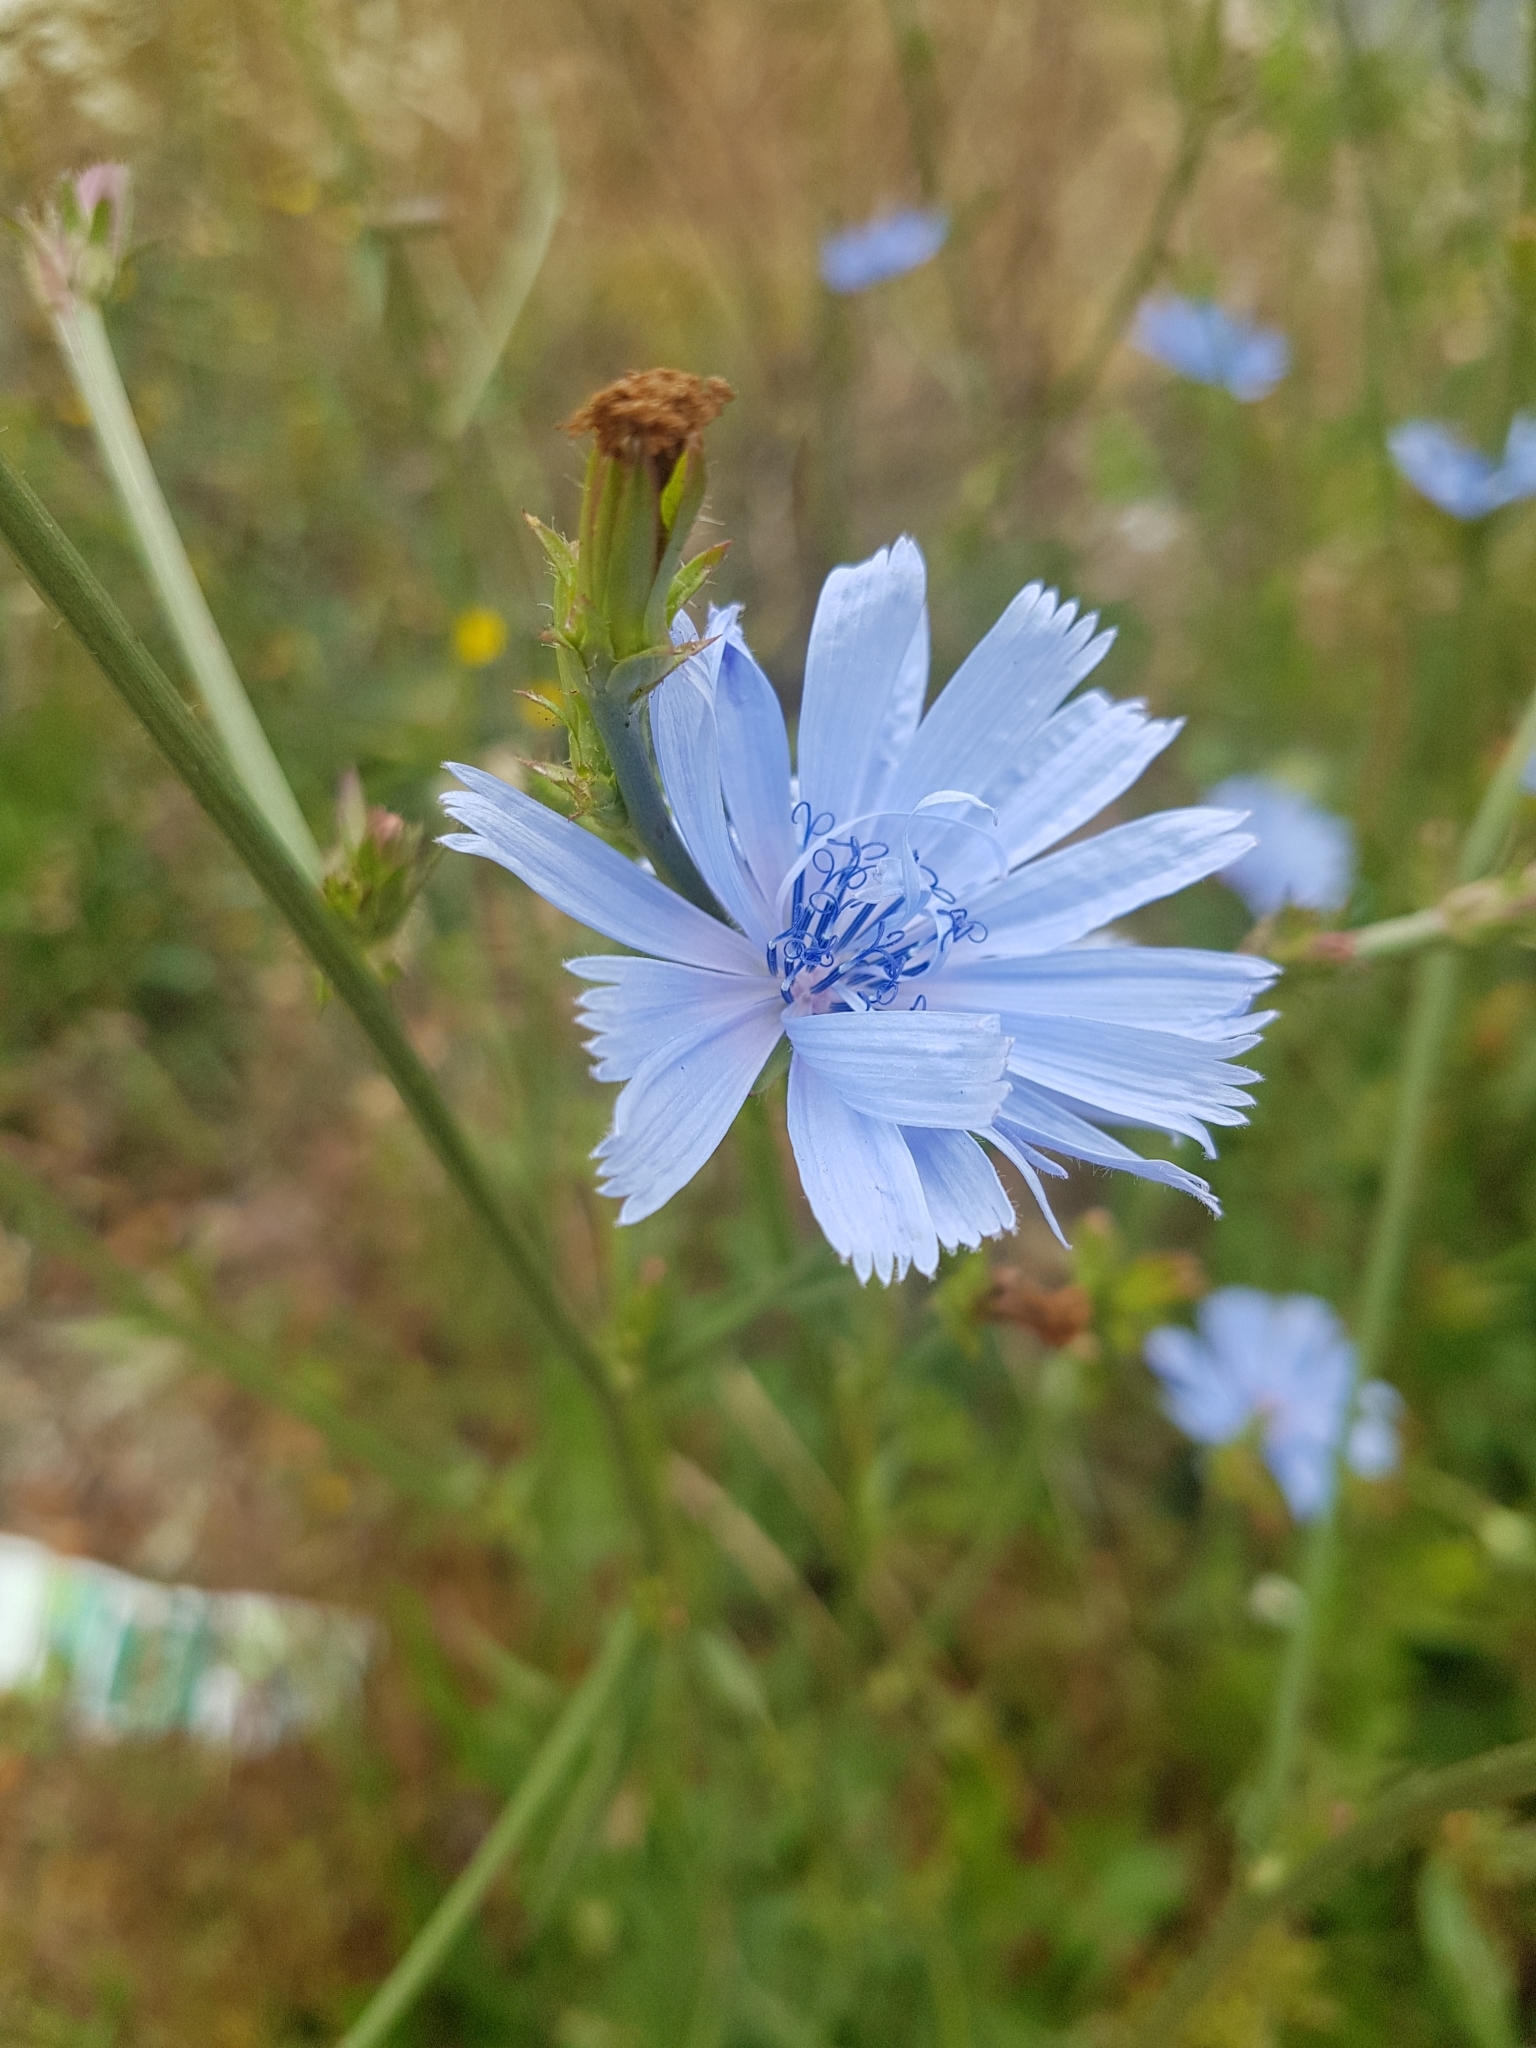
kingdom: Plantae
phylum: Tracheophyta
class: Magnoliopsida
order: Asterales
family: Asteraceae
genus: Cichorium
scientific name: Cichorium intybus
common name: Chicory
